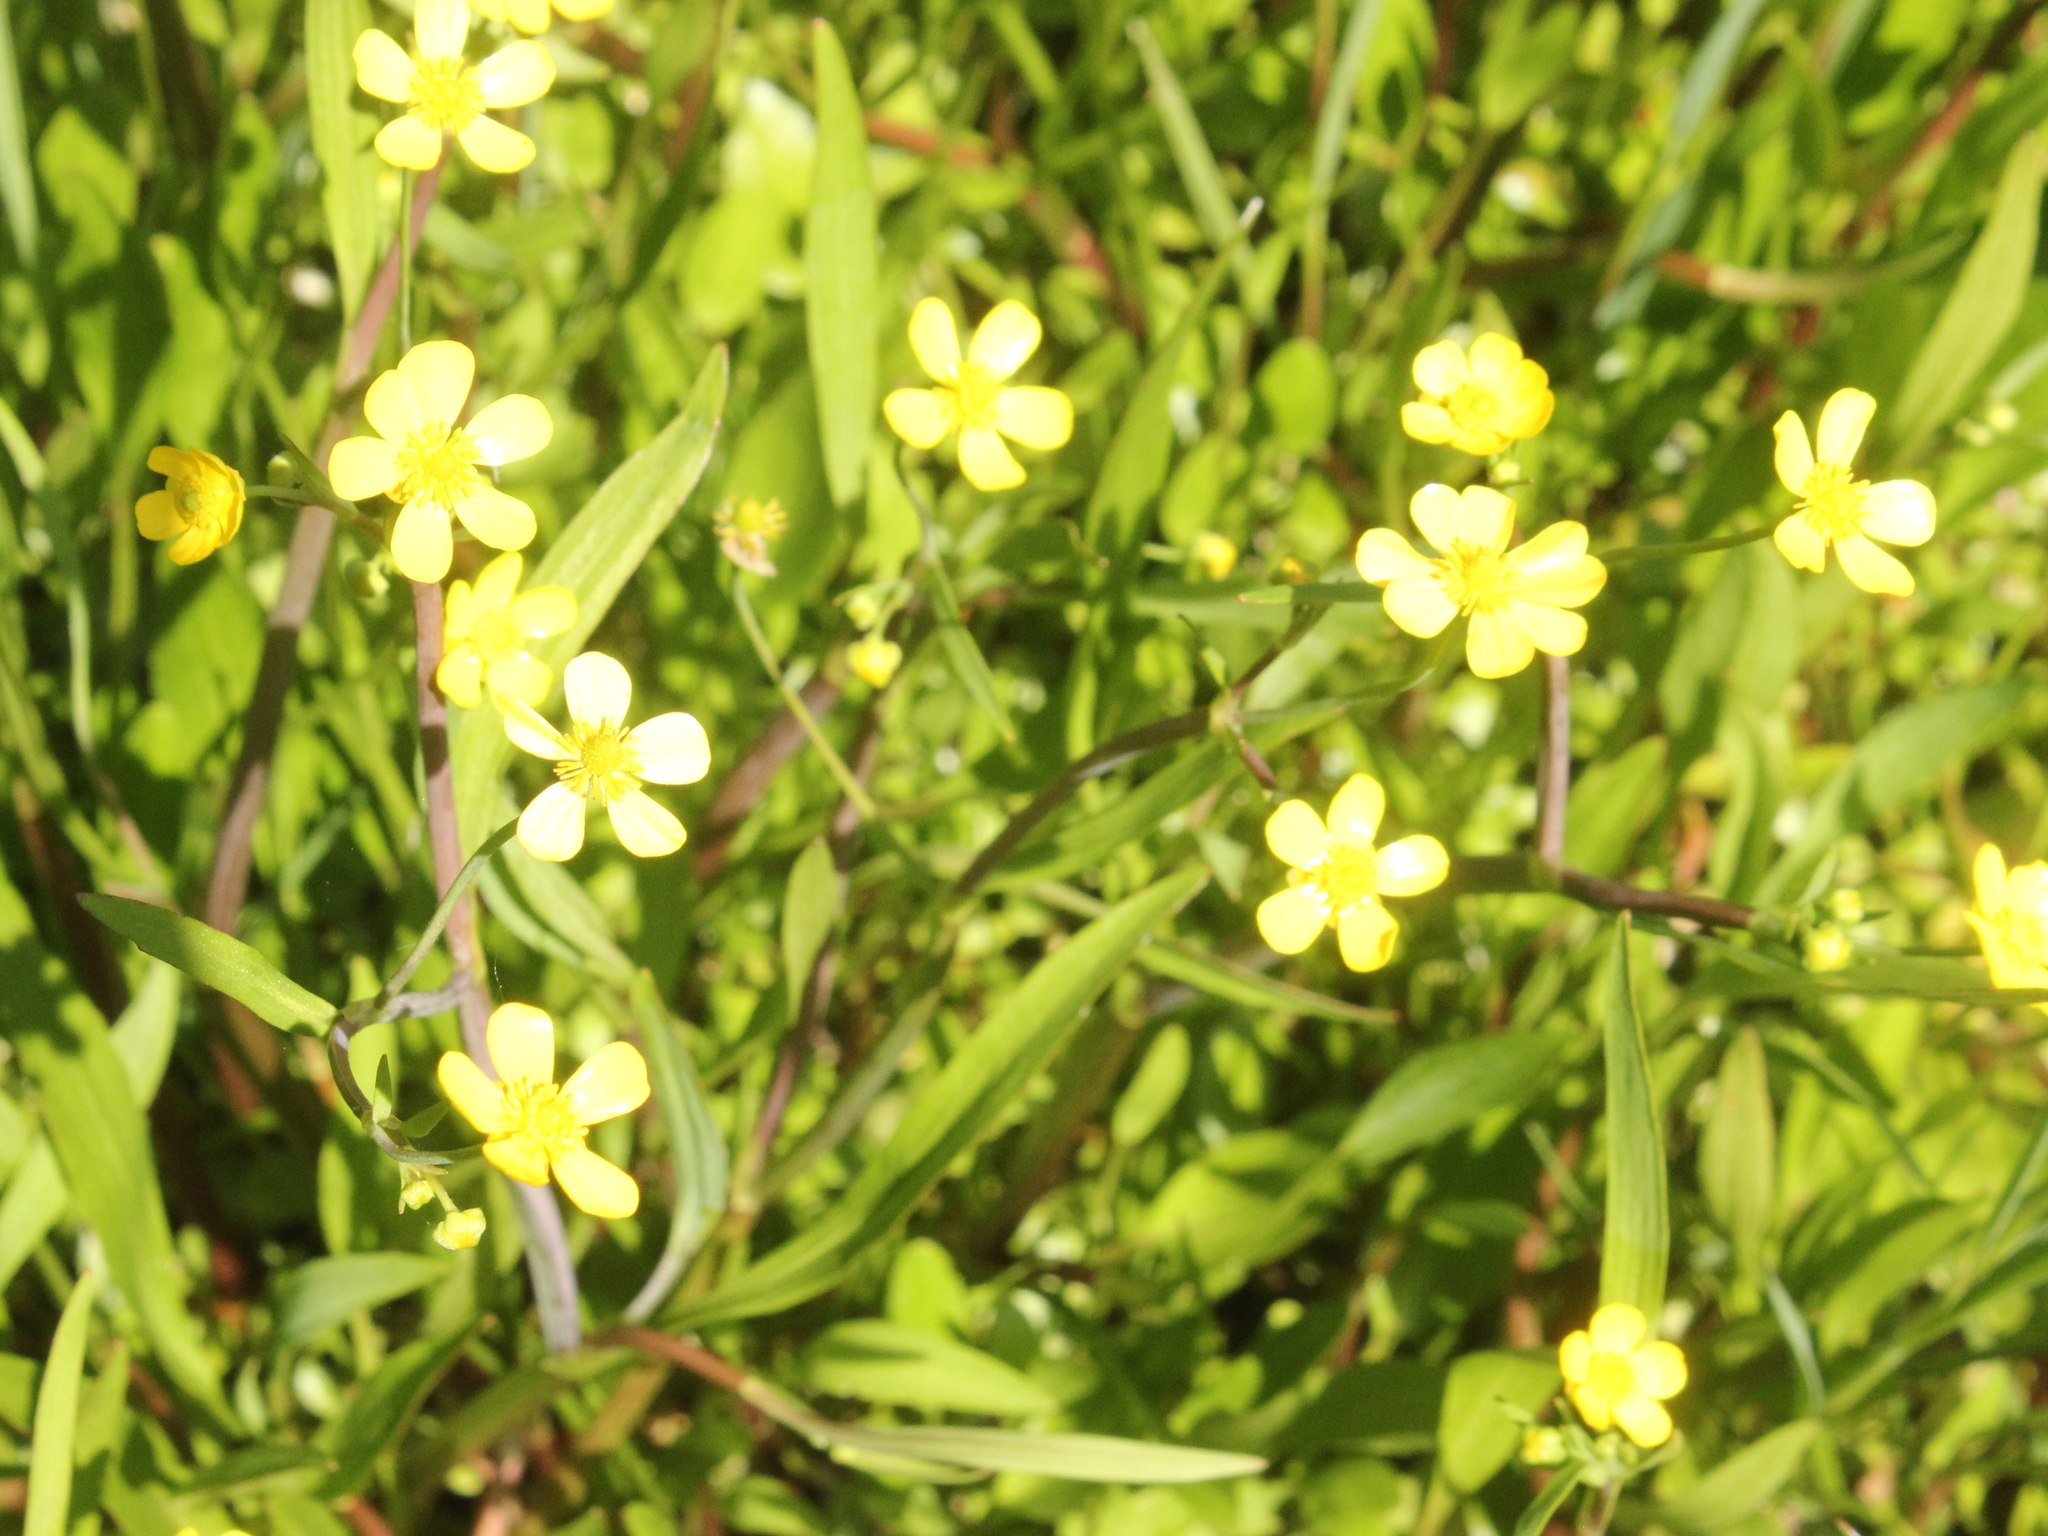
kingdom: Plantae
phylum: Tracheophyta
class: Magnoliopsida
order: Ranunculales
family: Ranunculaceae
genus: Ranunculus
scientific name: Ranunculus flammula
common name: Lesser spearwort
